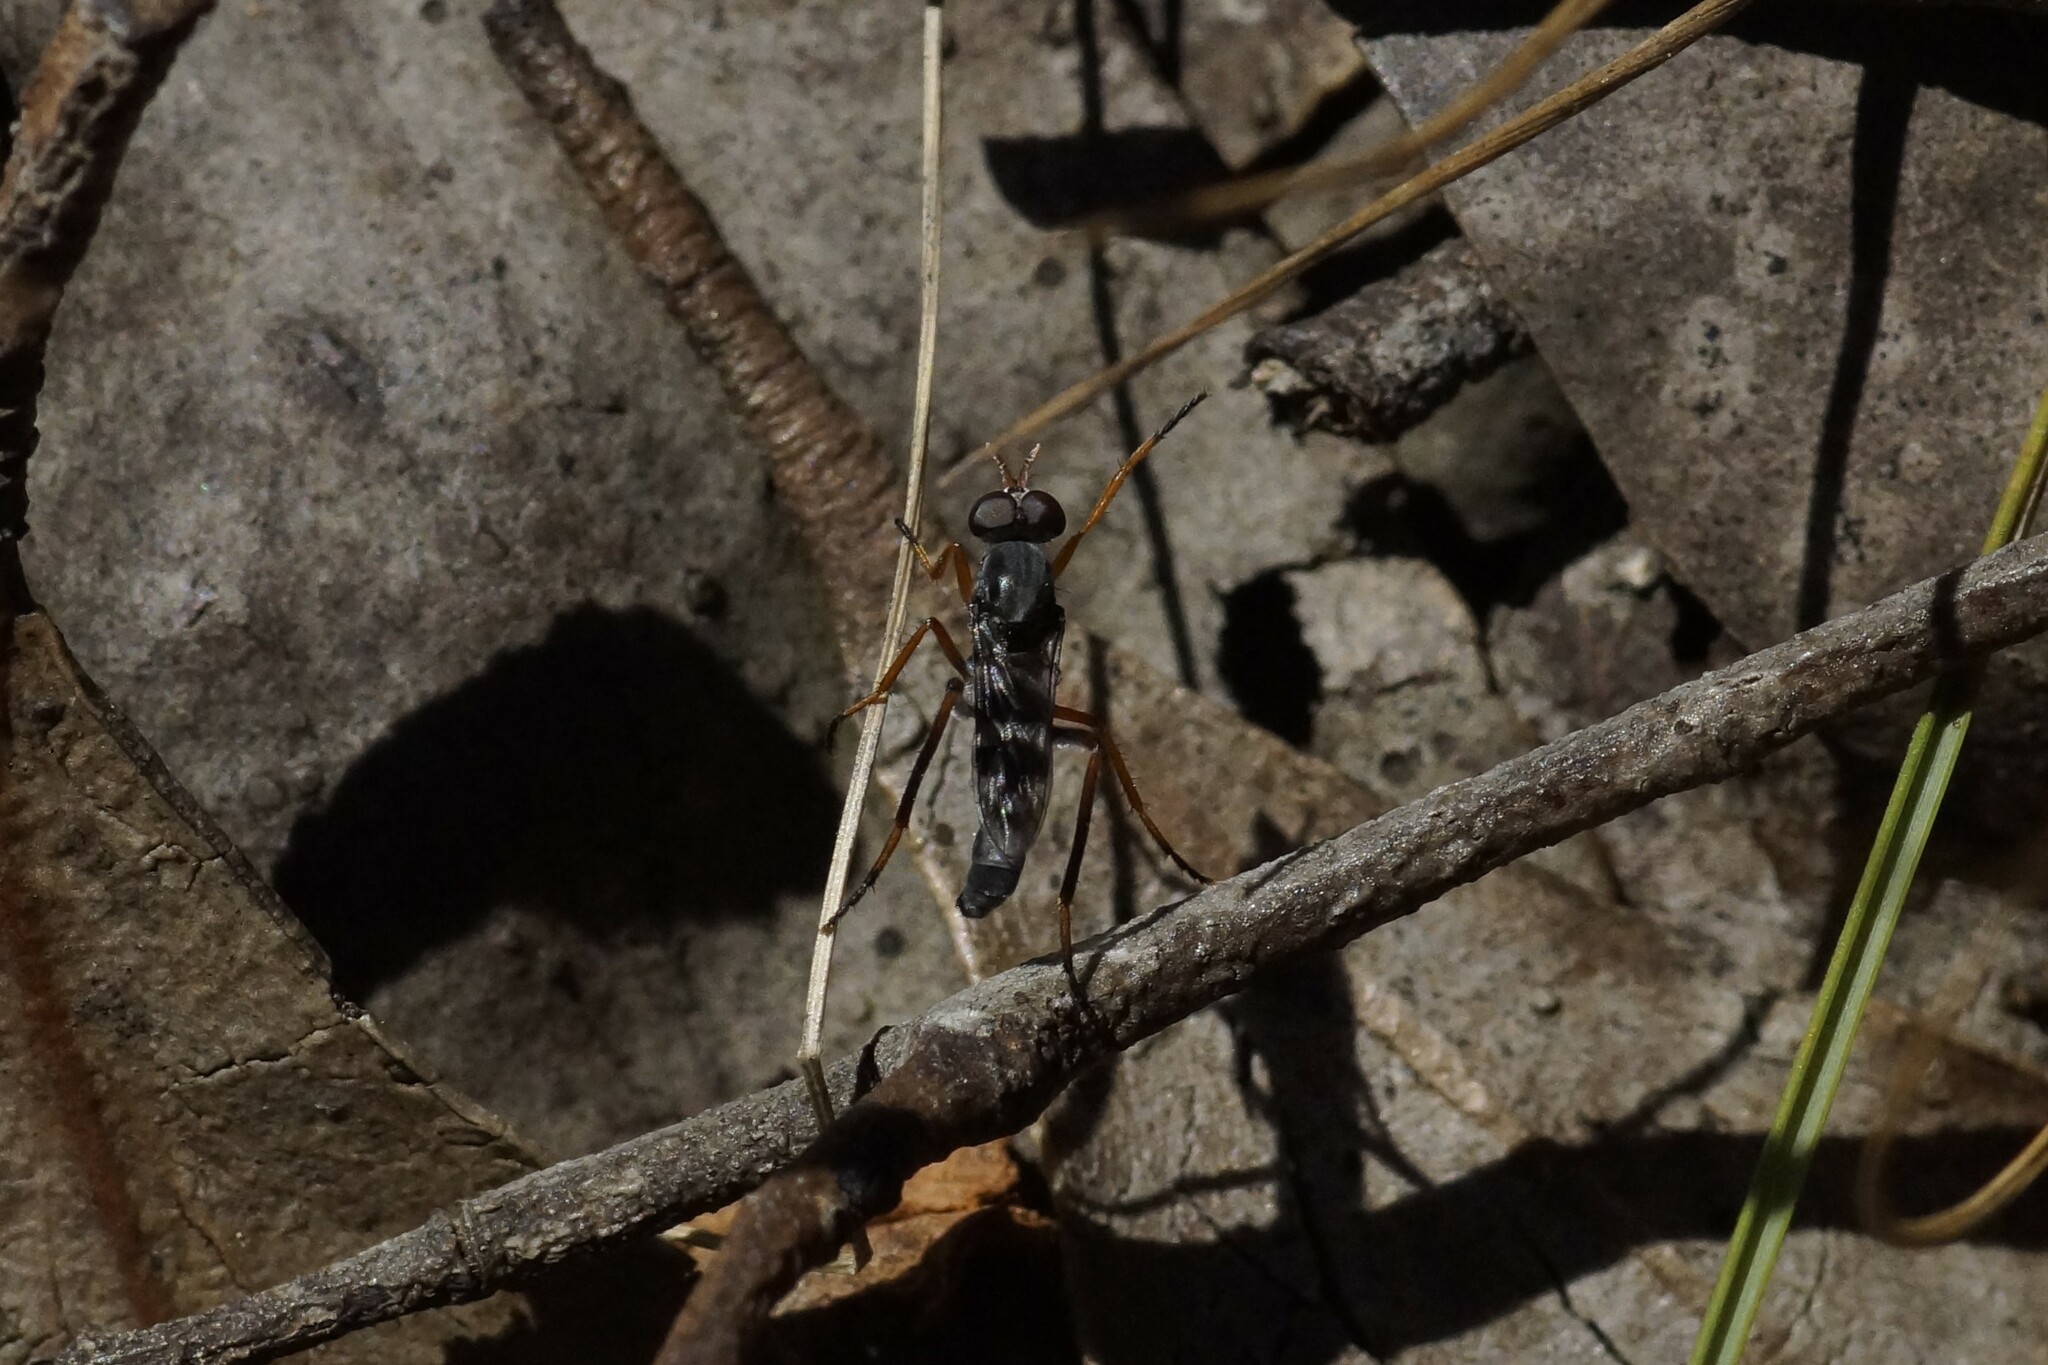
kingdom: Animalia
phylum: Arthropoda
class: Insecta
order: Diptera
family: Therevidae
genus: Acatopygia
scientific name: Acatopygia paradoxa
